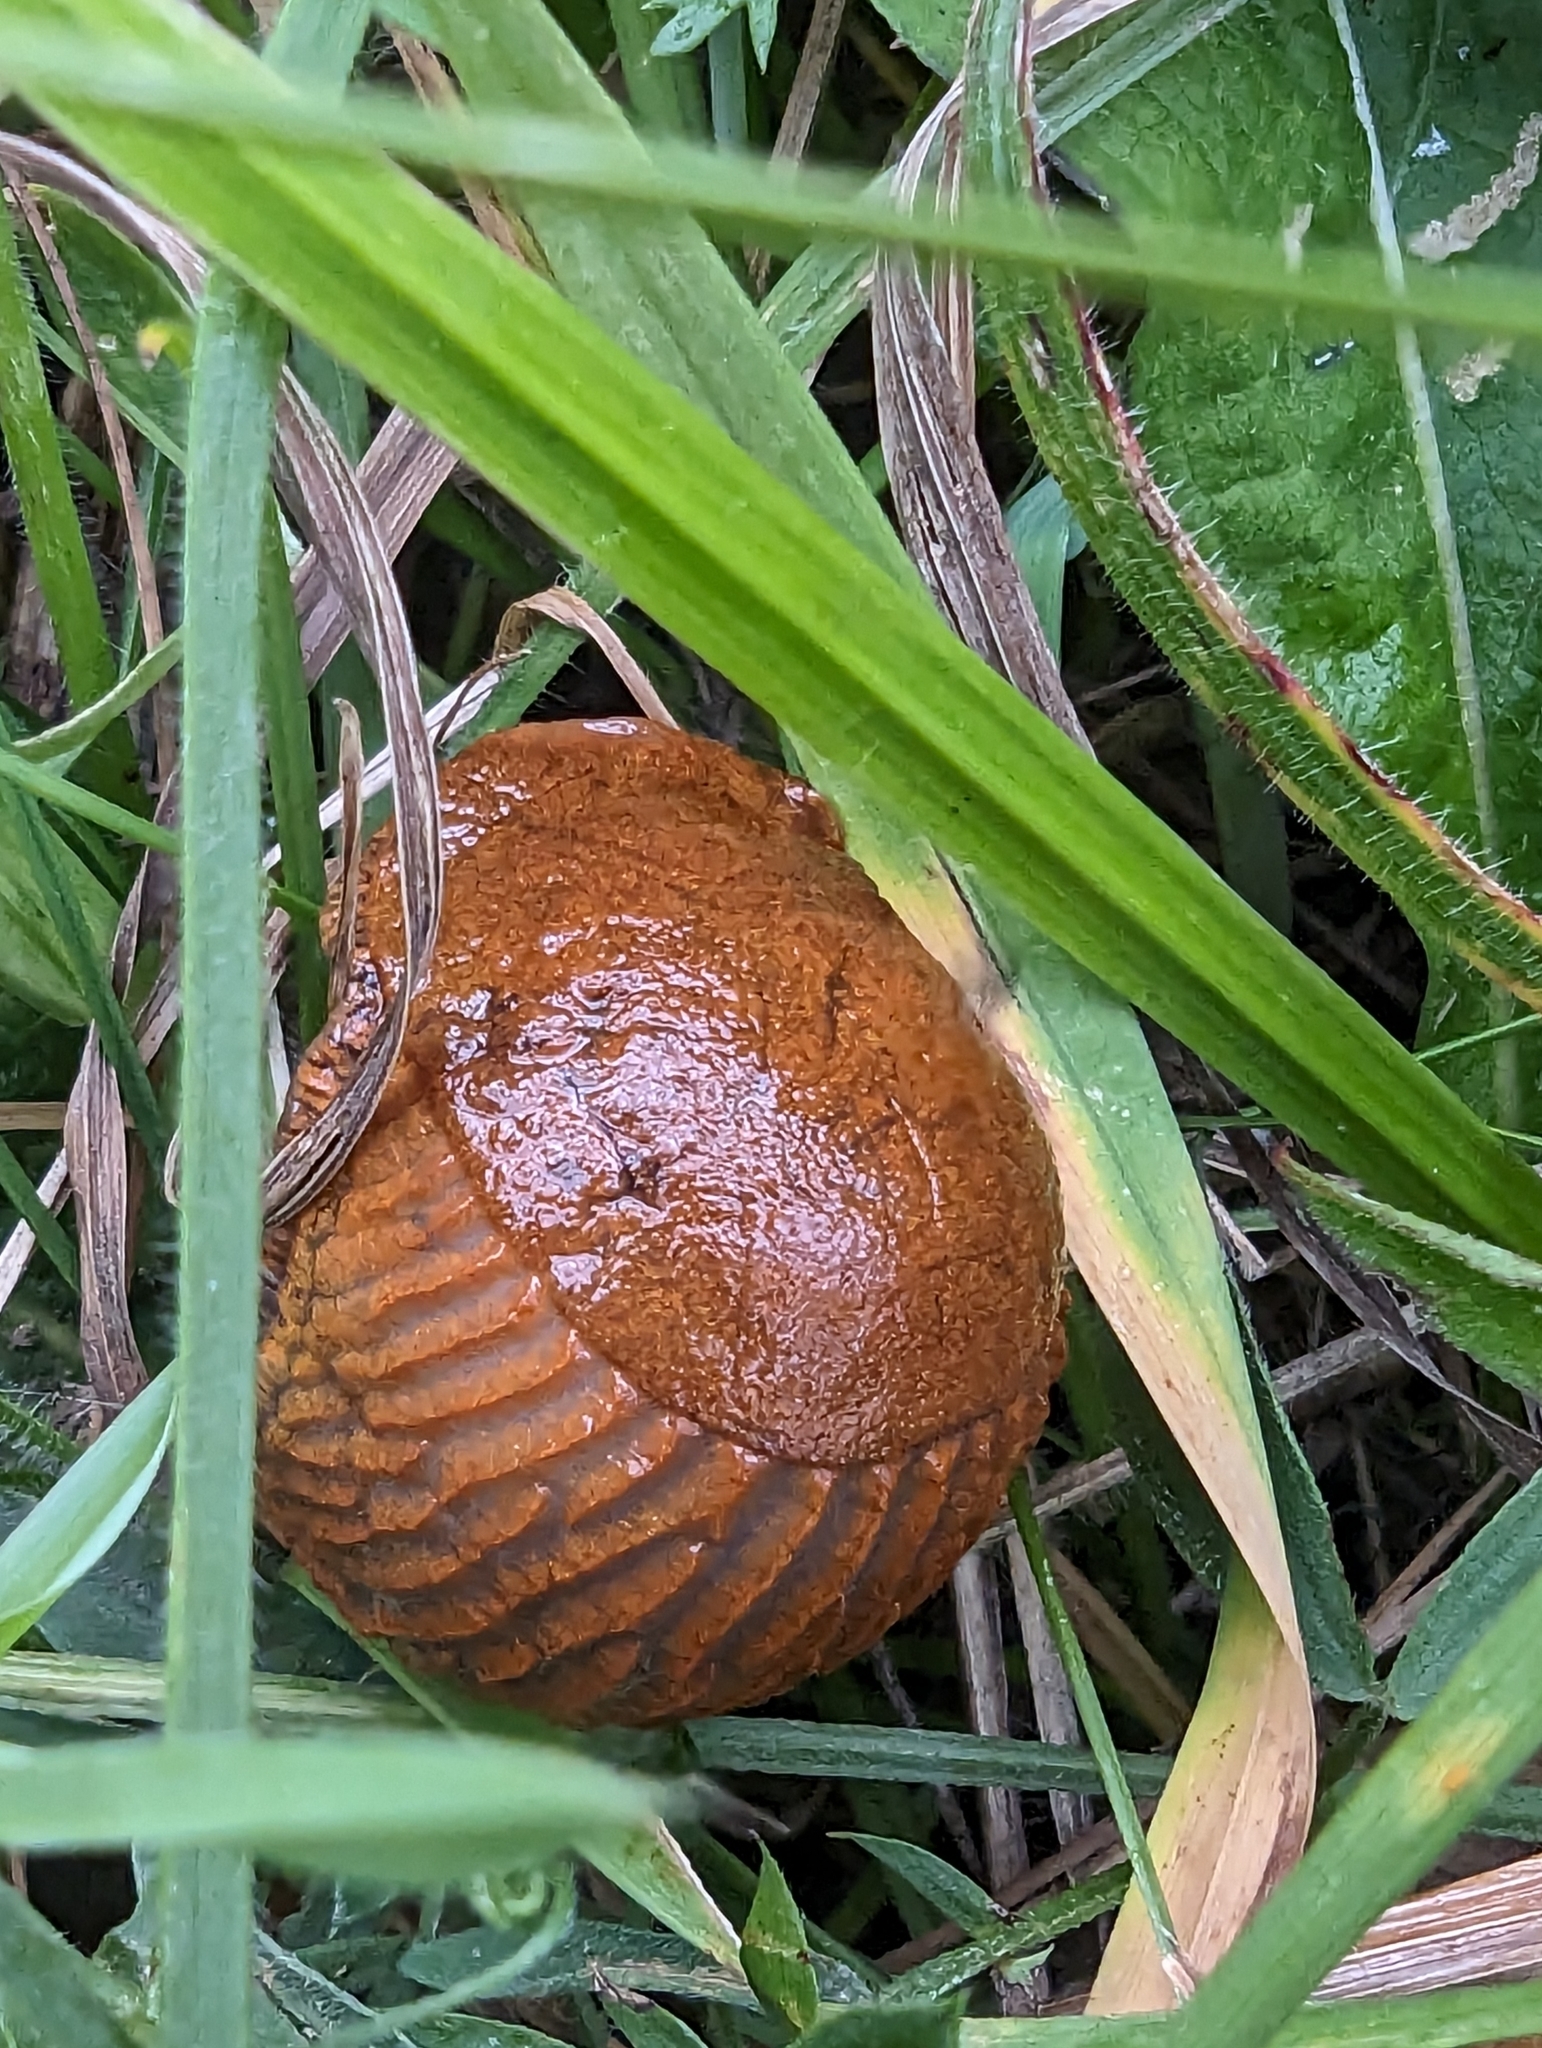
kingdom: Animalia
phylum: Mollusca
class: Gastropoda
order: Stylommatophora
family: Arionidae
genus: Arion
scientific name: Arion vulgaris
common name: Lusitanian slug
